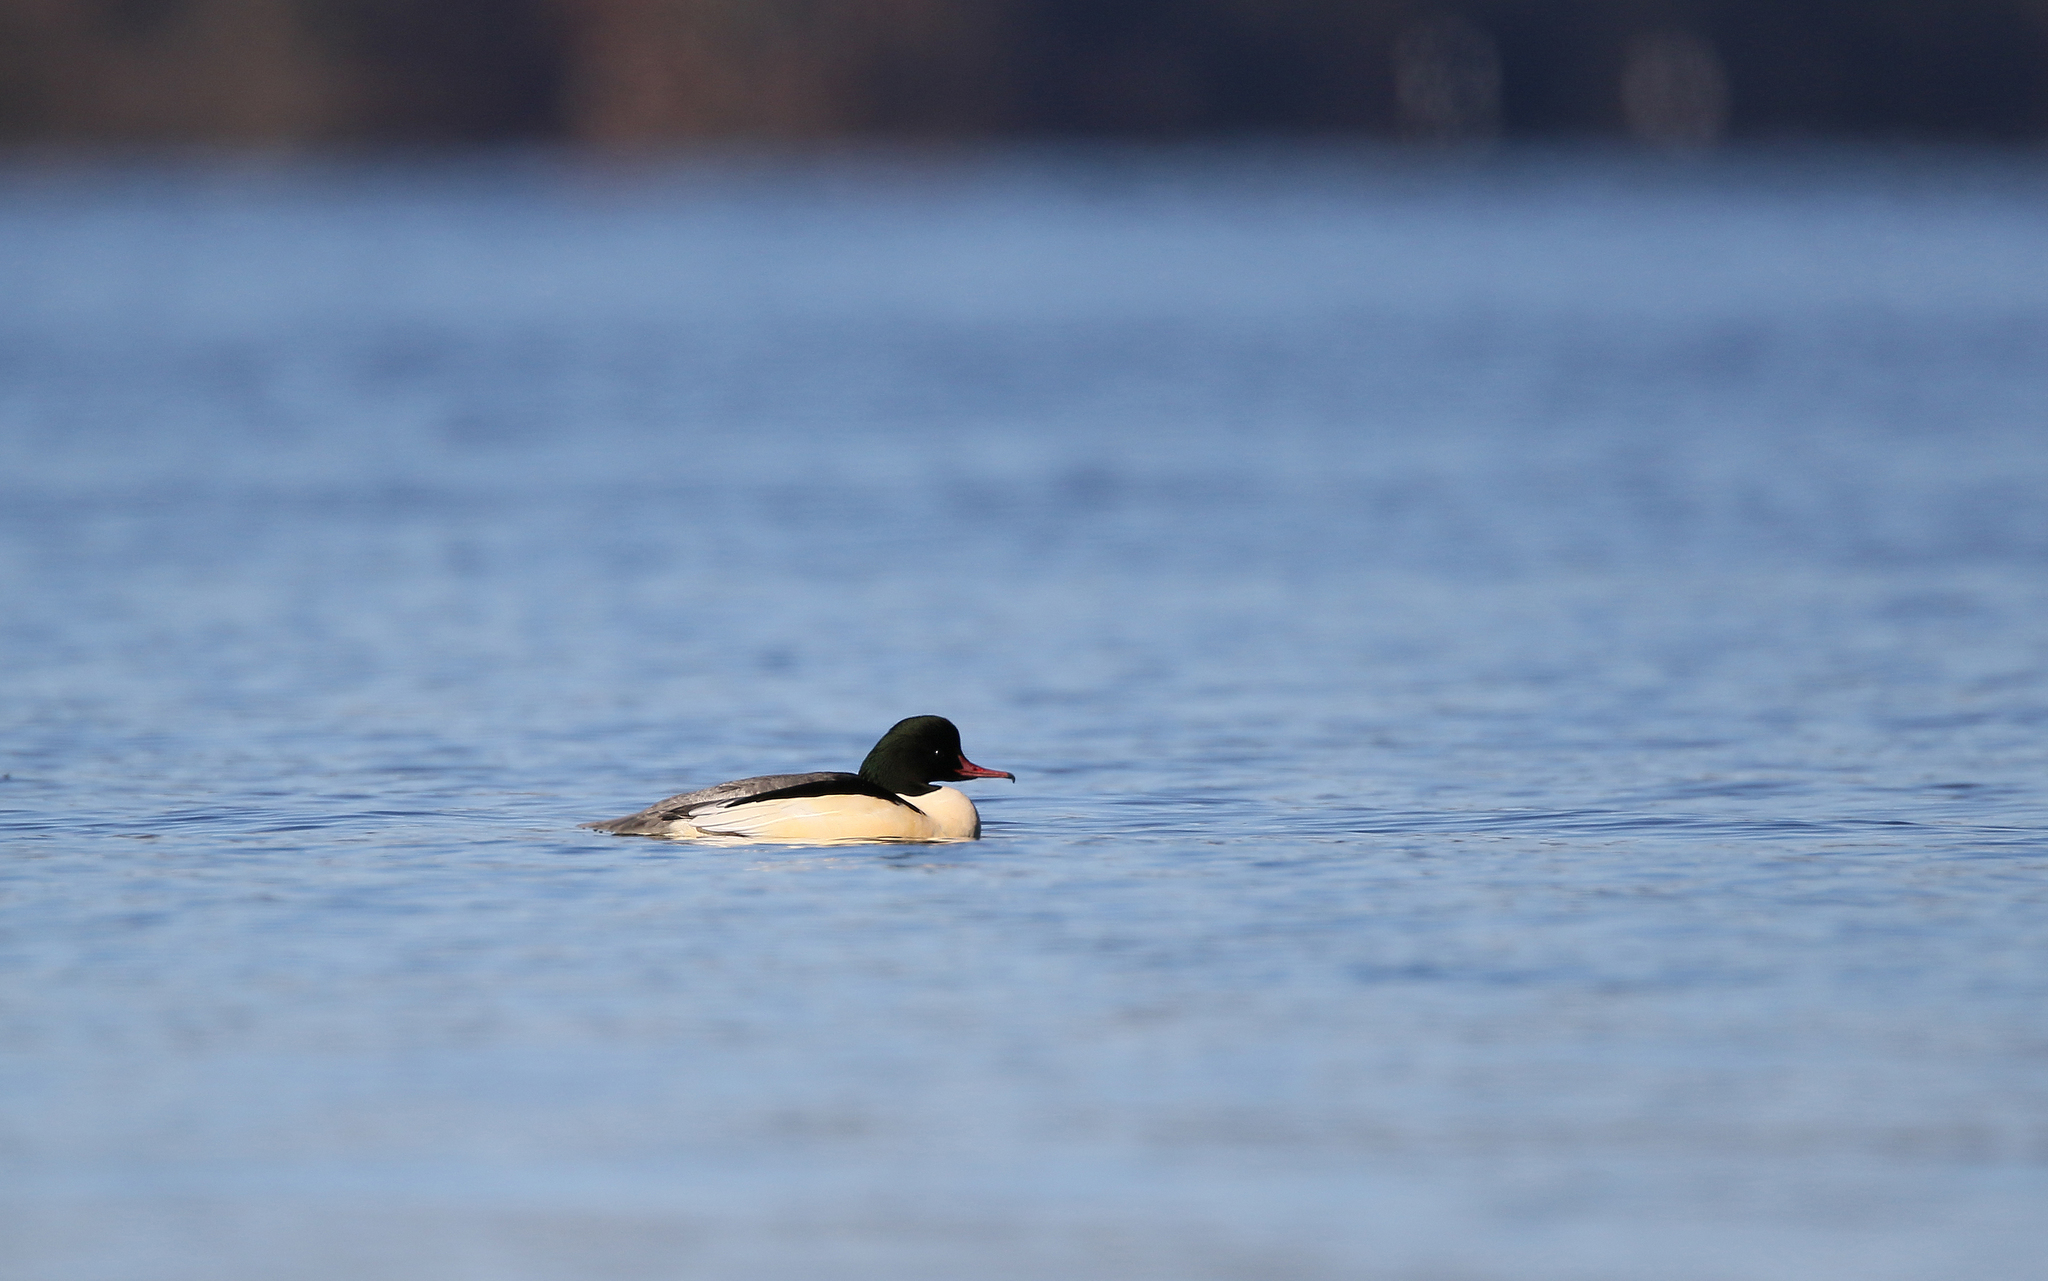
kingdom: Animalia
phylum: Chordata
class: Aves
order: Anseriformes
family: Anatidae
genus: Mergus
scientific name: Mergus merganser
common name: Common merganser
